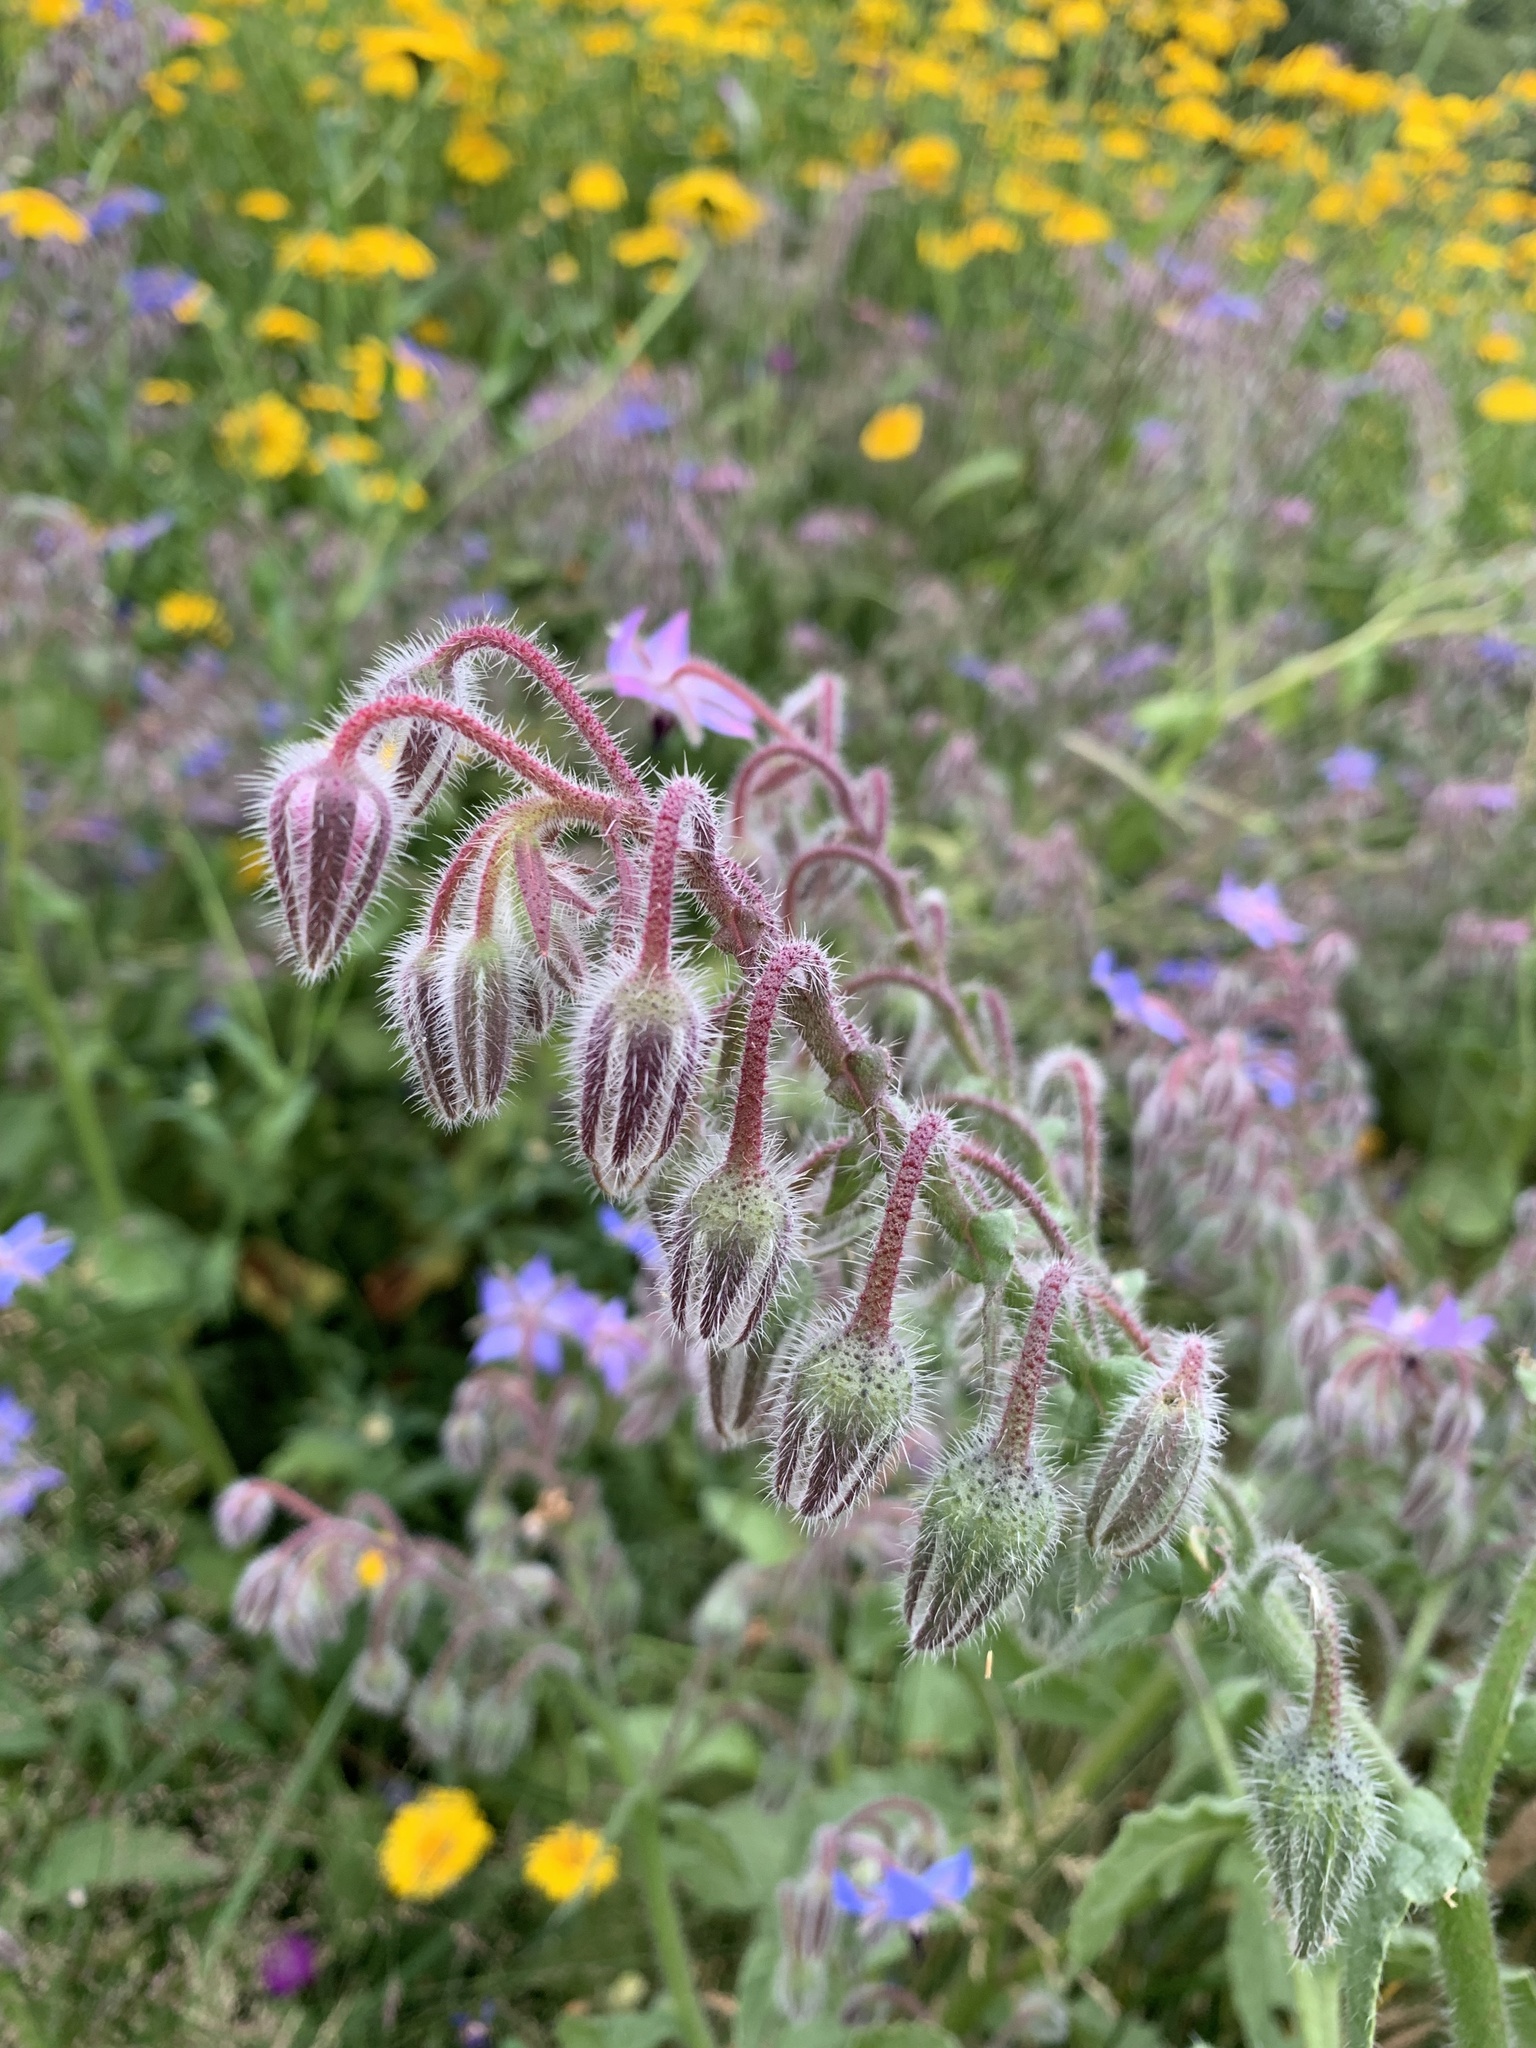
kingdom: Plantae
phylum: Tracheophyta
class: Magnoliopsida
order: Boraginales
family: Boraginaceae
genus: Borago
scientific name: Borago officinalis
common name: Borage
